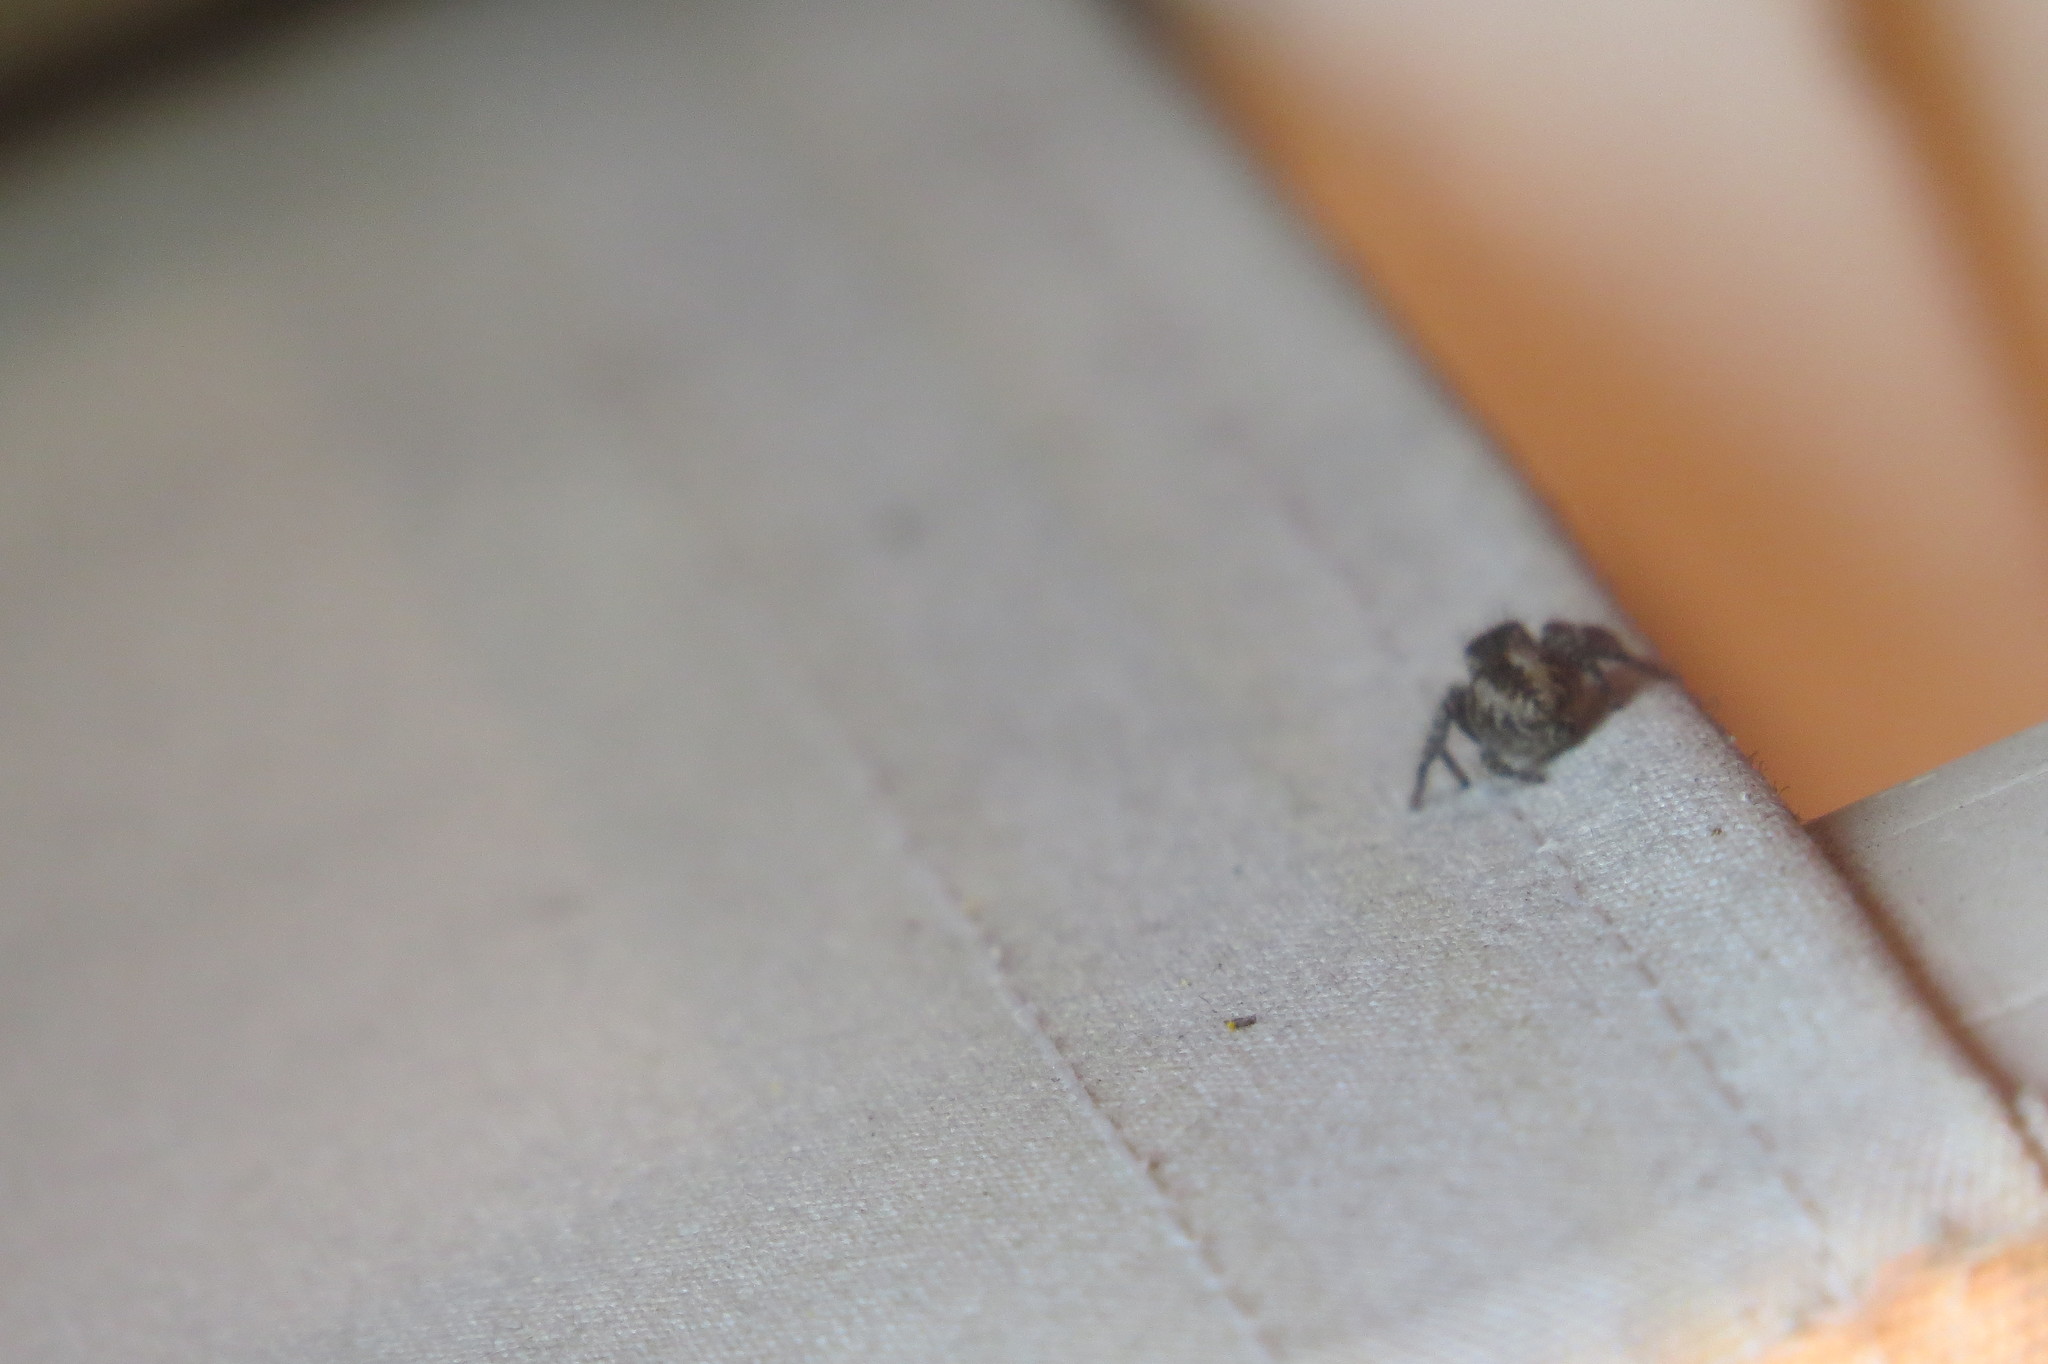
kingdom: Animalia
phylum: Arthropoda
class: Arachnida
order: Araneae
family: Salticidae
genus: Philaeus
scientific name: Philaeus chrysops
